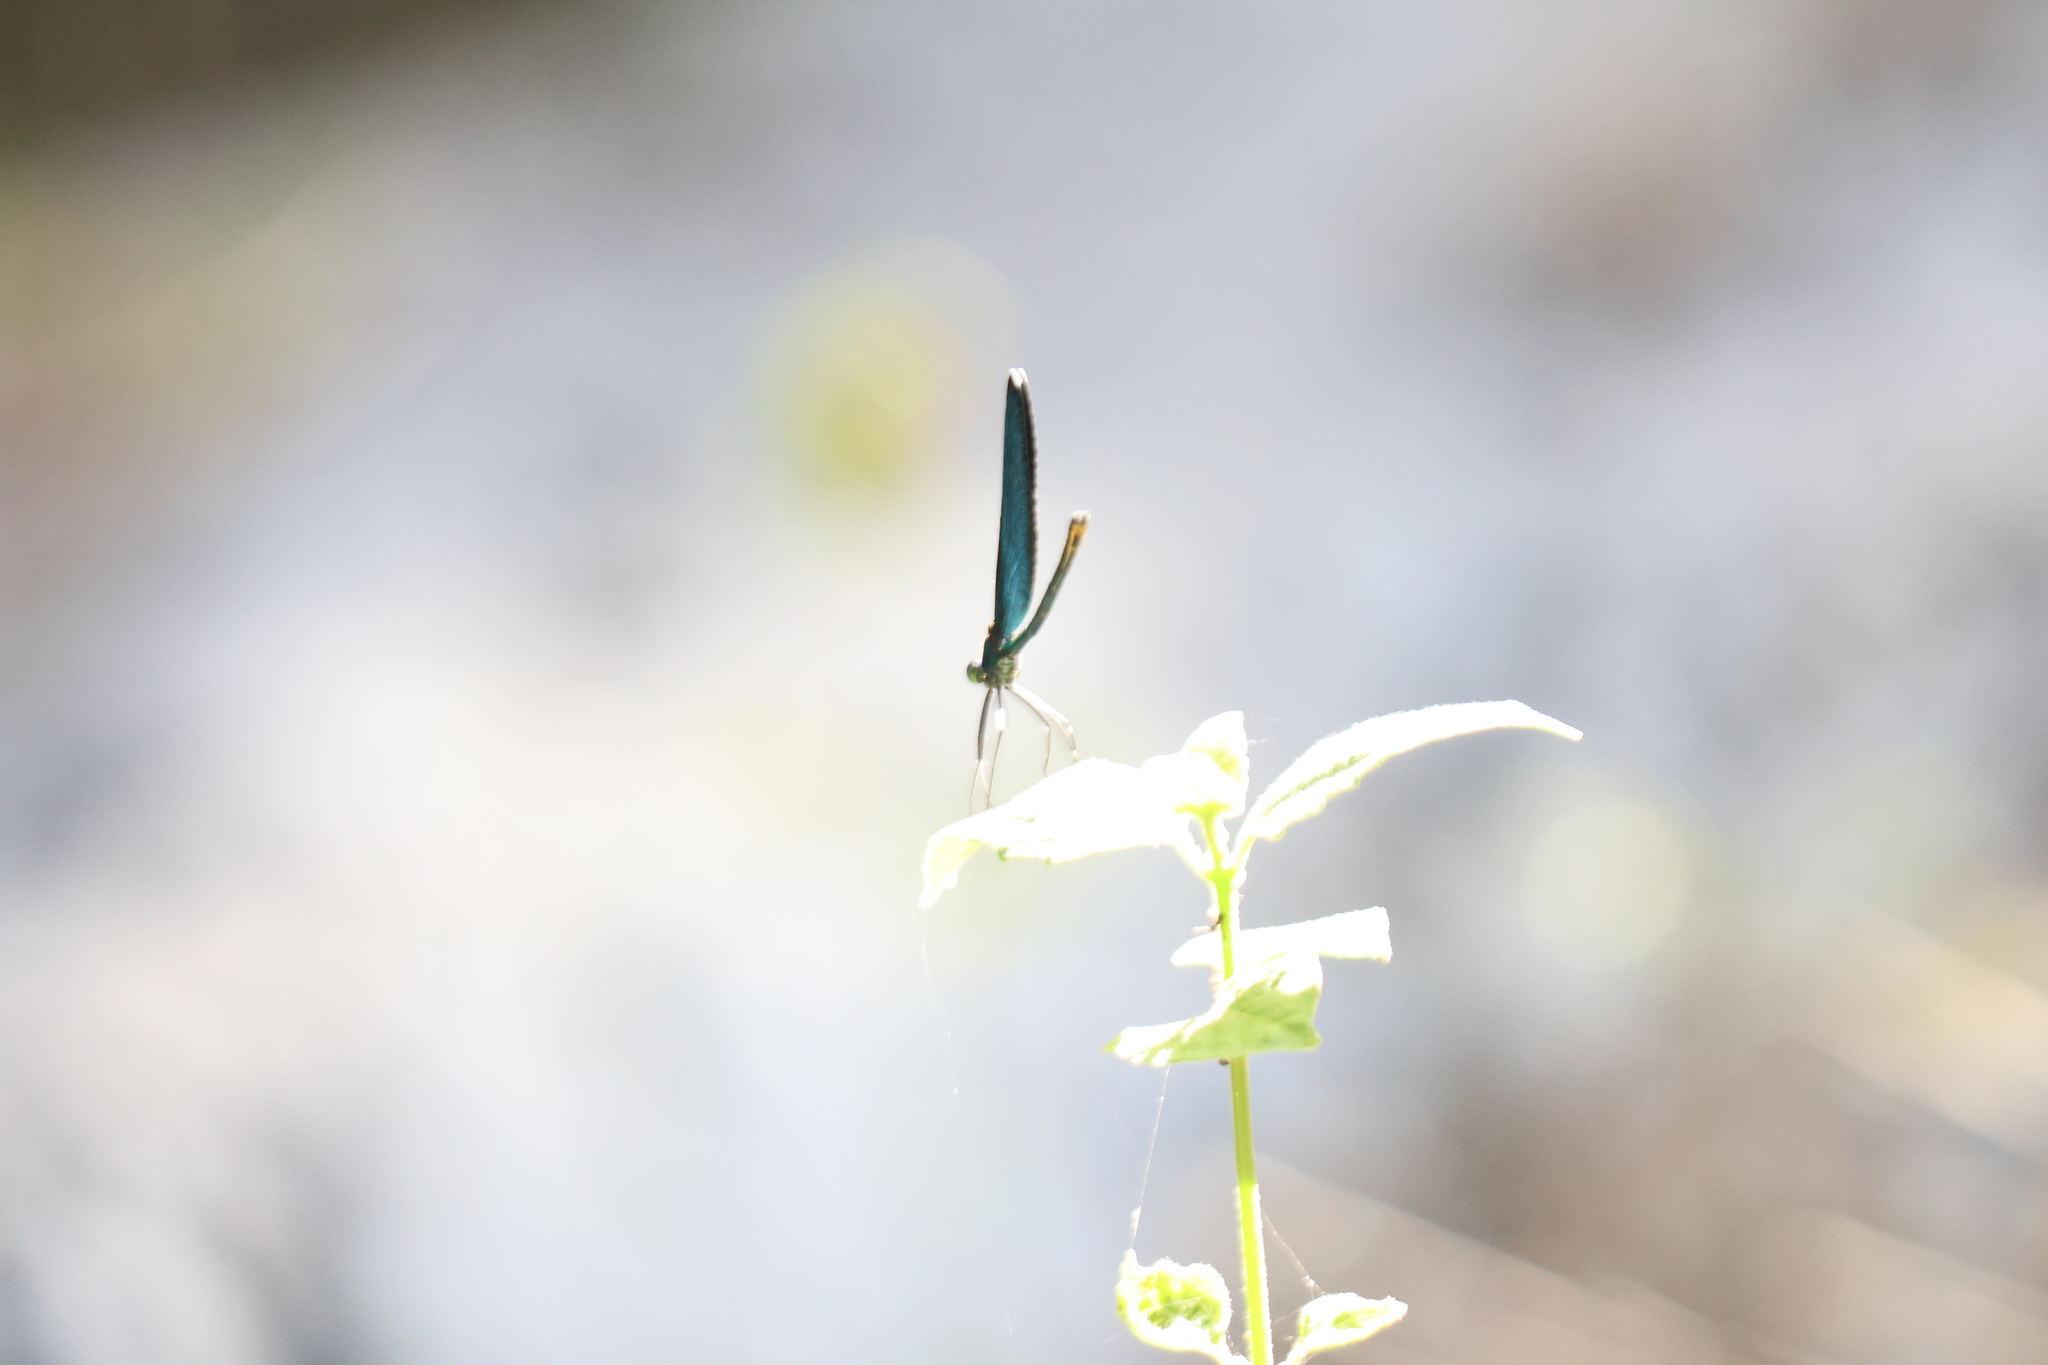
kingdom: Animalia
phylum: Arthropoda
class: Insecta
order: Odonata
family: Calopterygidae
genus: Matrona
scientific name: Matrona cyanoptera
